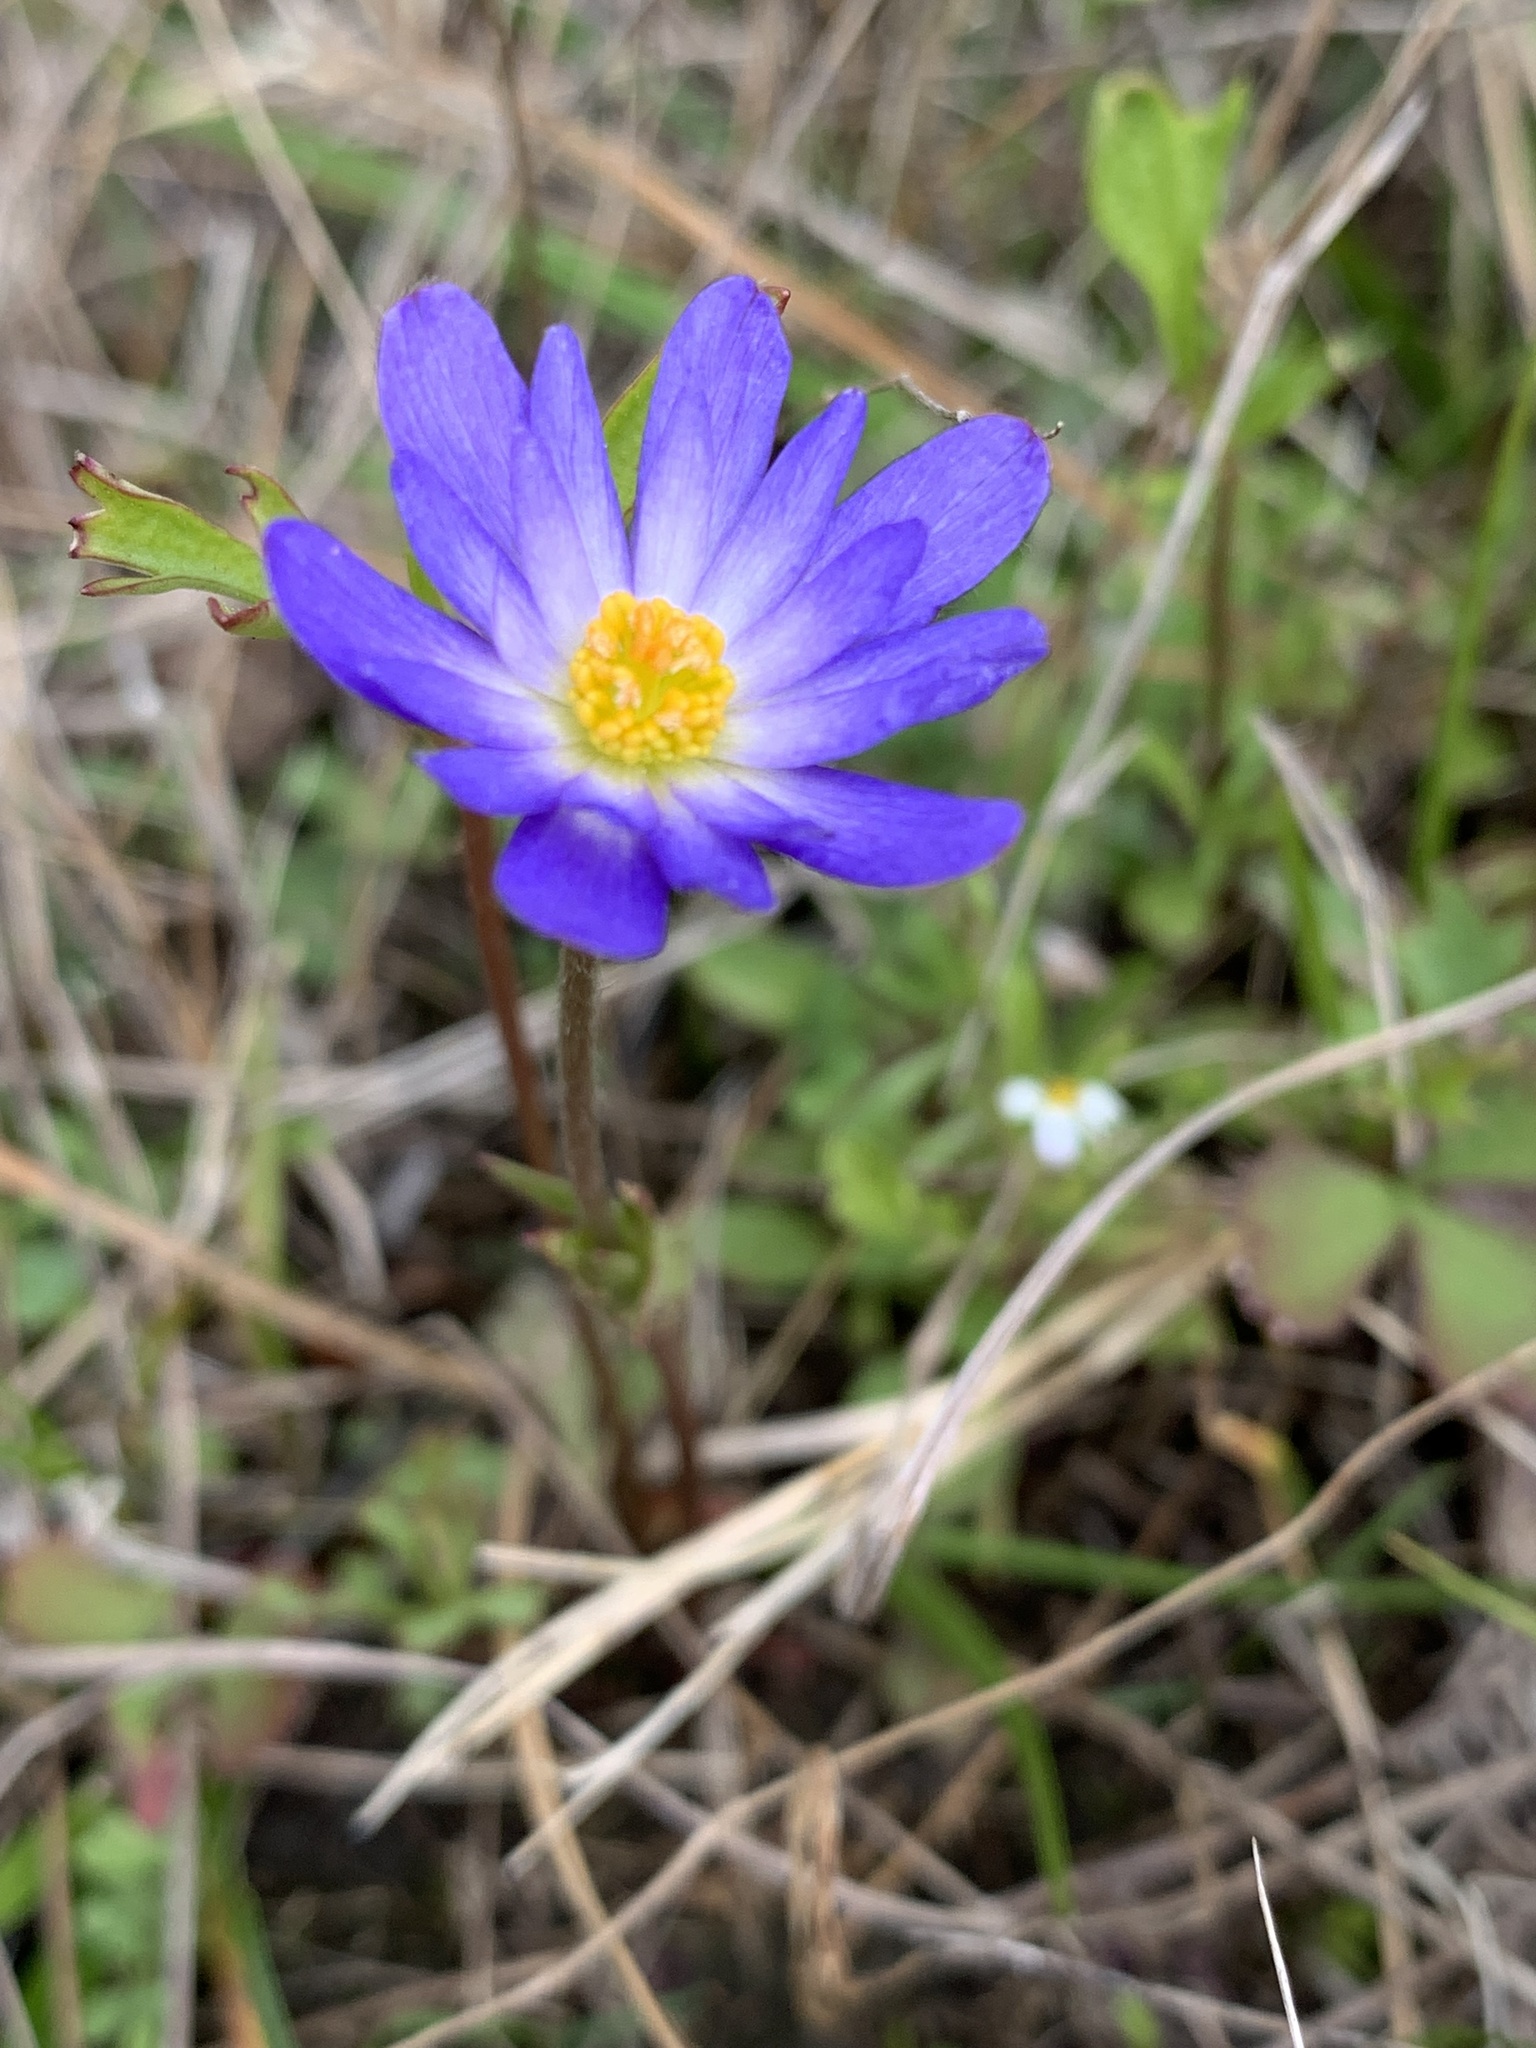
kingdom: Plantae
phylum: Tracheophyta
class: Magnoliopsida
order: Ranunculales
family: Ranunculaceae
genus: Anemone
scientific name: Anemone caroliniana
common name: Carolina anemone
